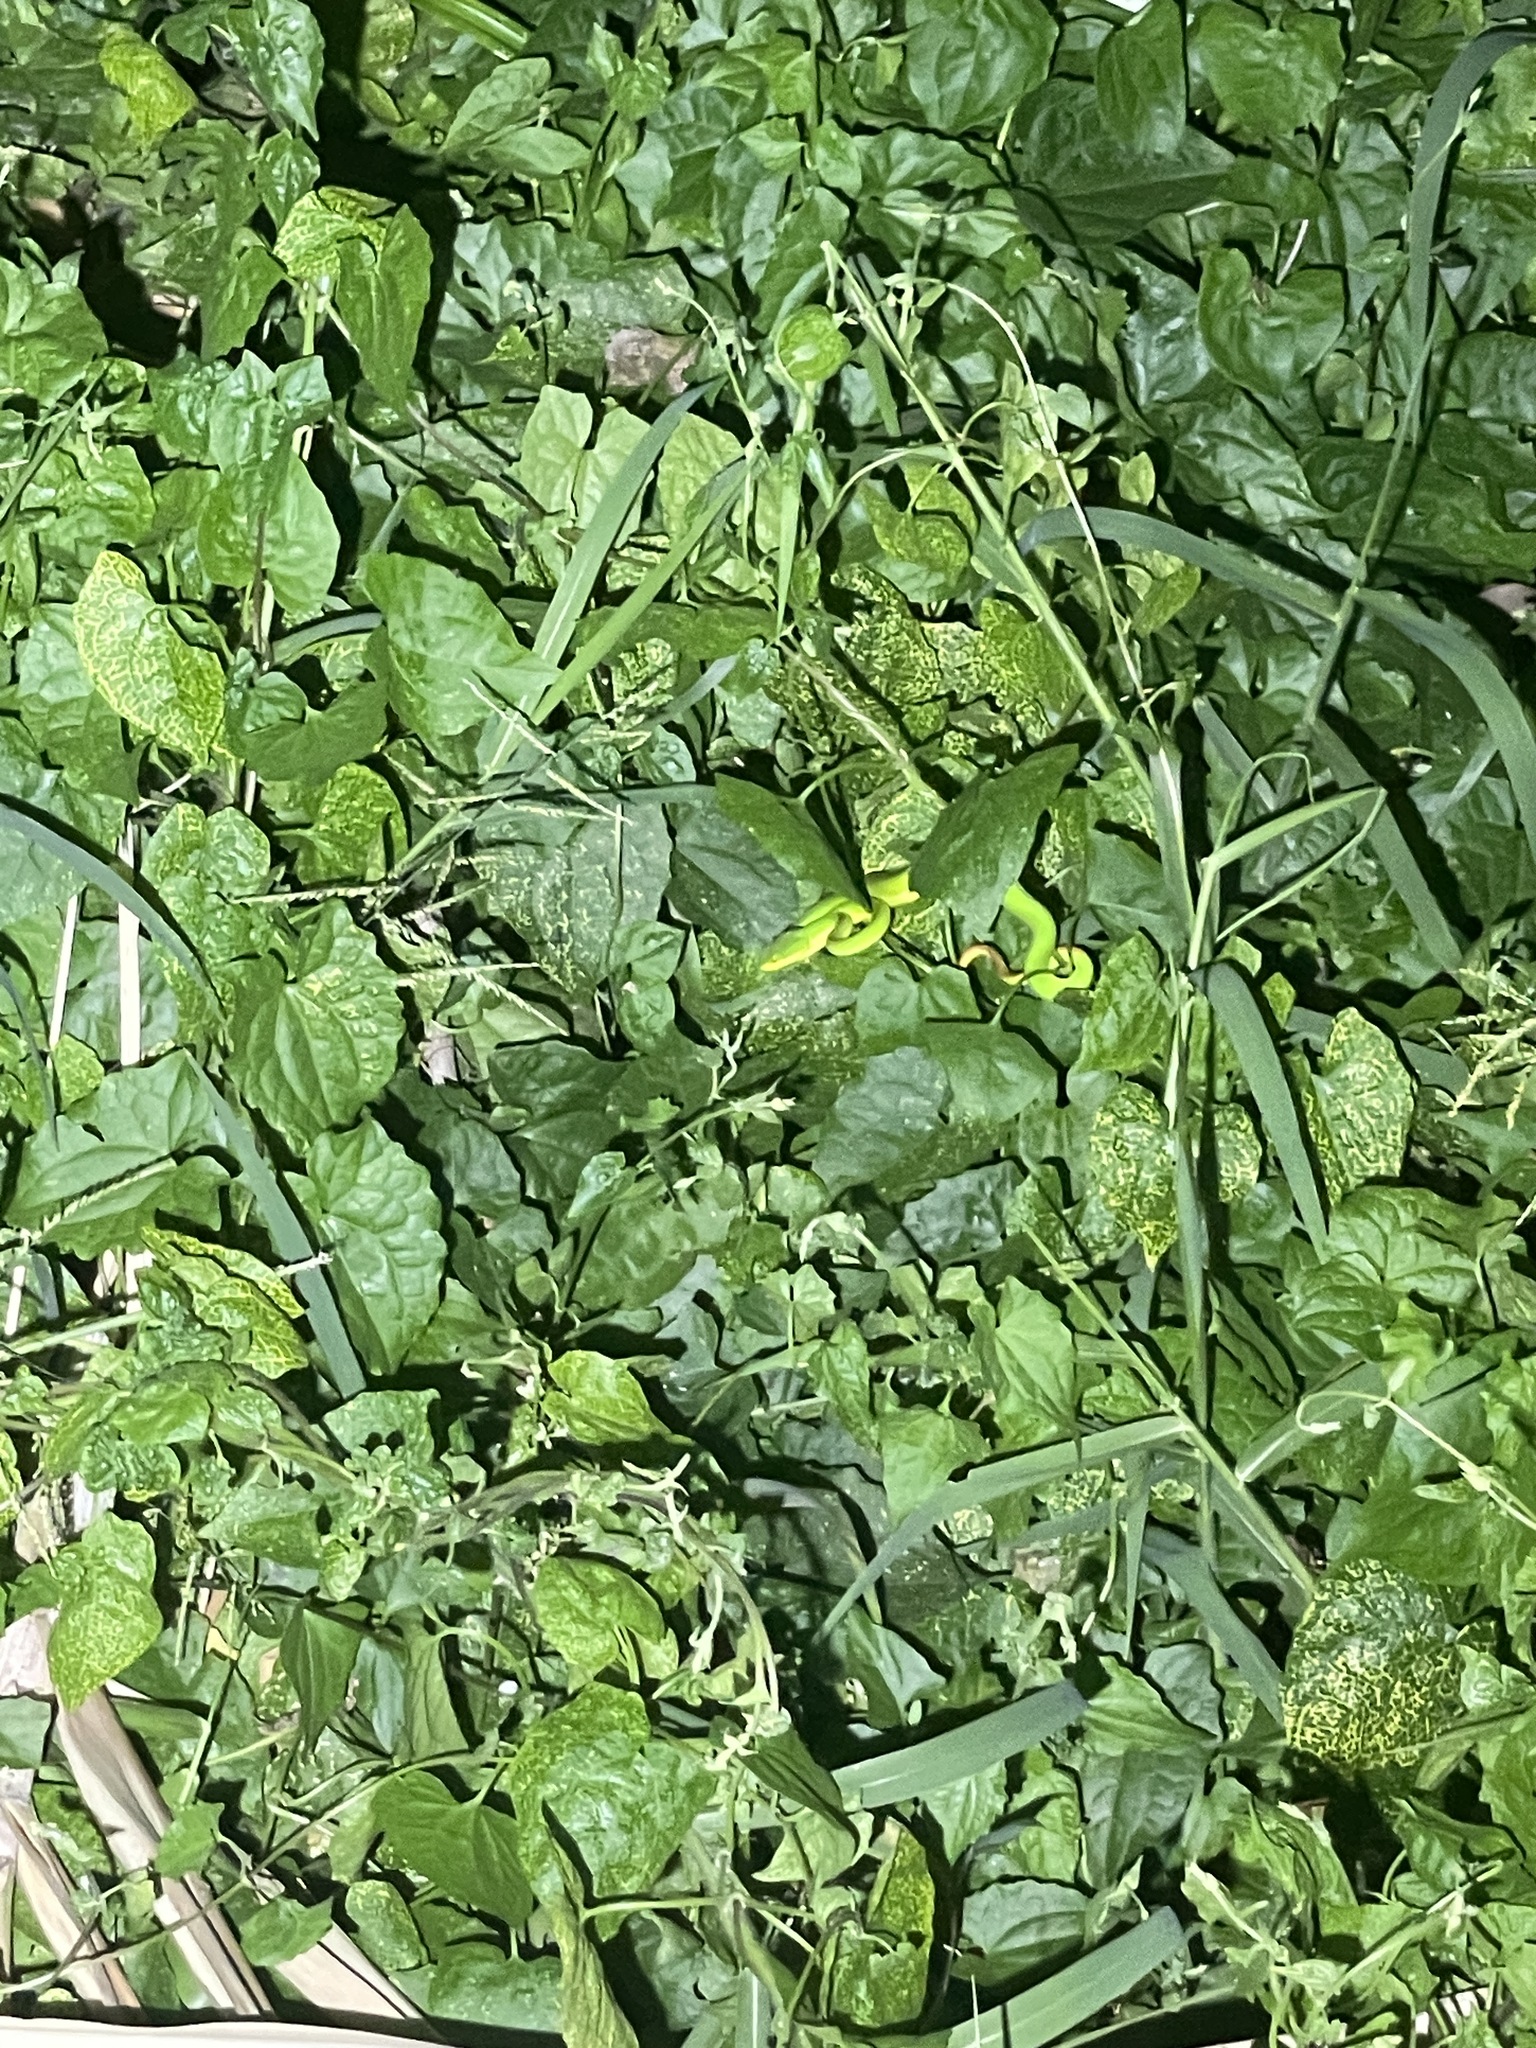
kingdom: Animalia
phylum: Chordata
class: Squamata
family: Viperidae
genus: Trimeresurus
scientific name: Trimeresurus albolabris
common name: White-lipped pitviper
